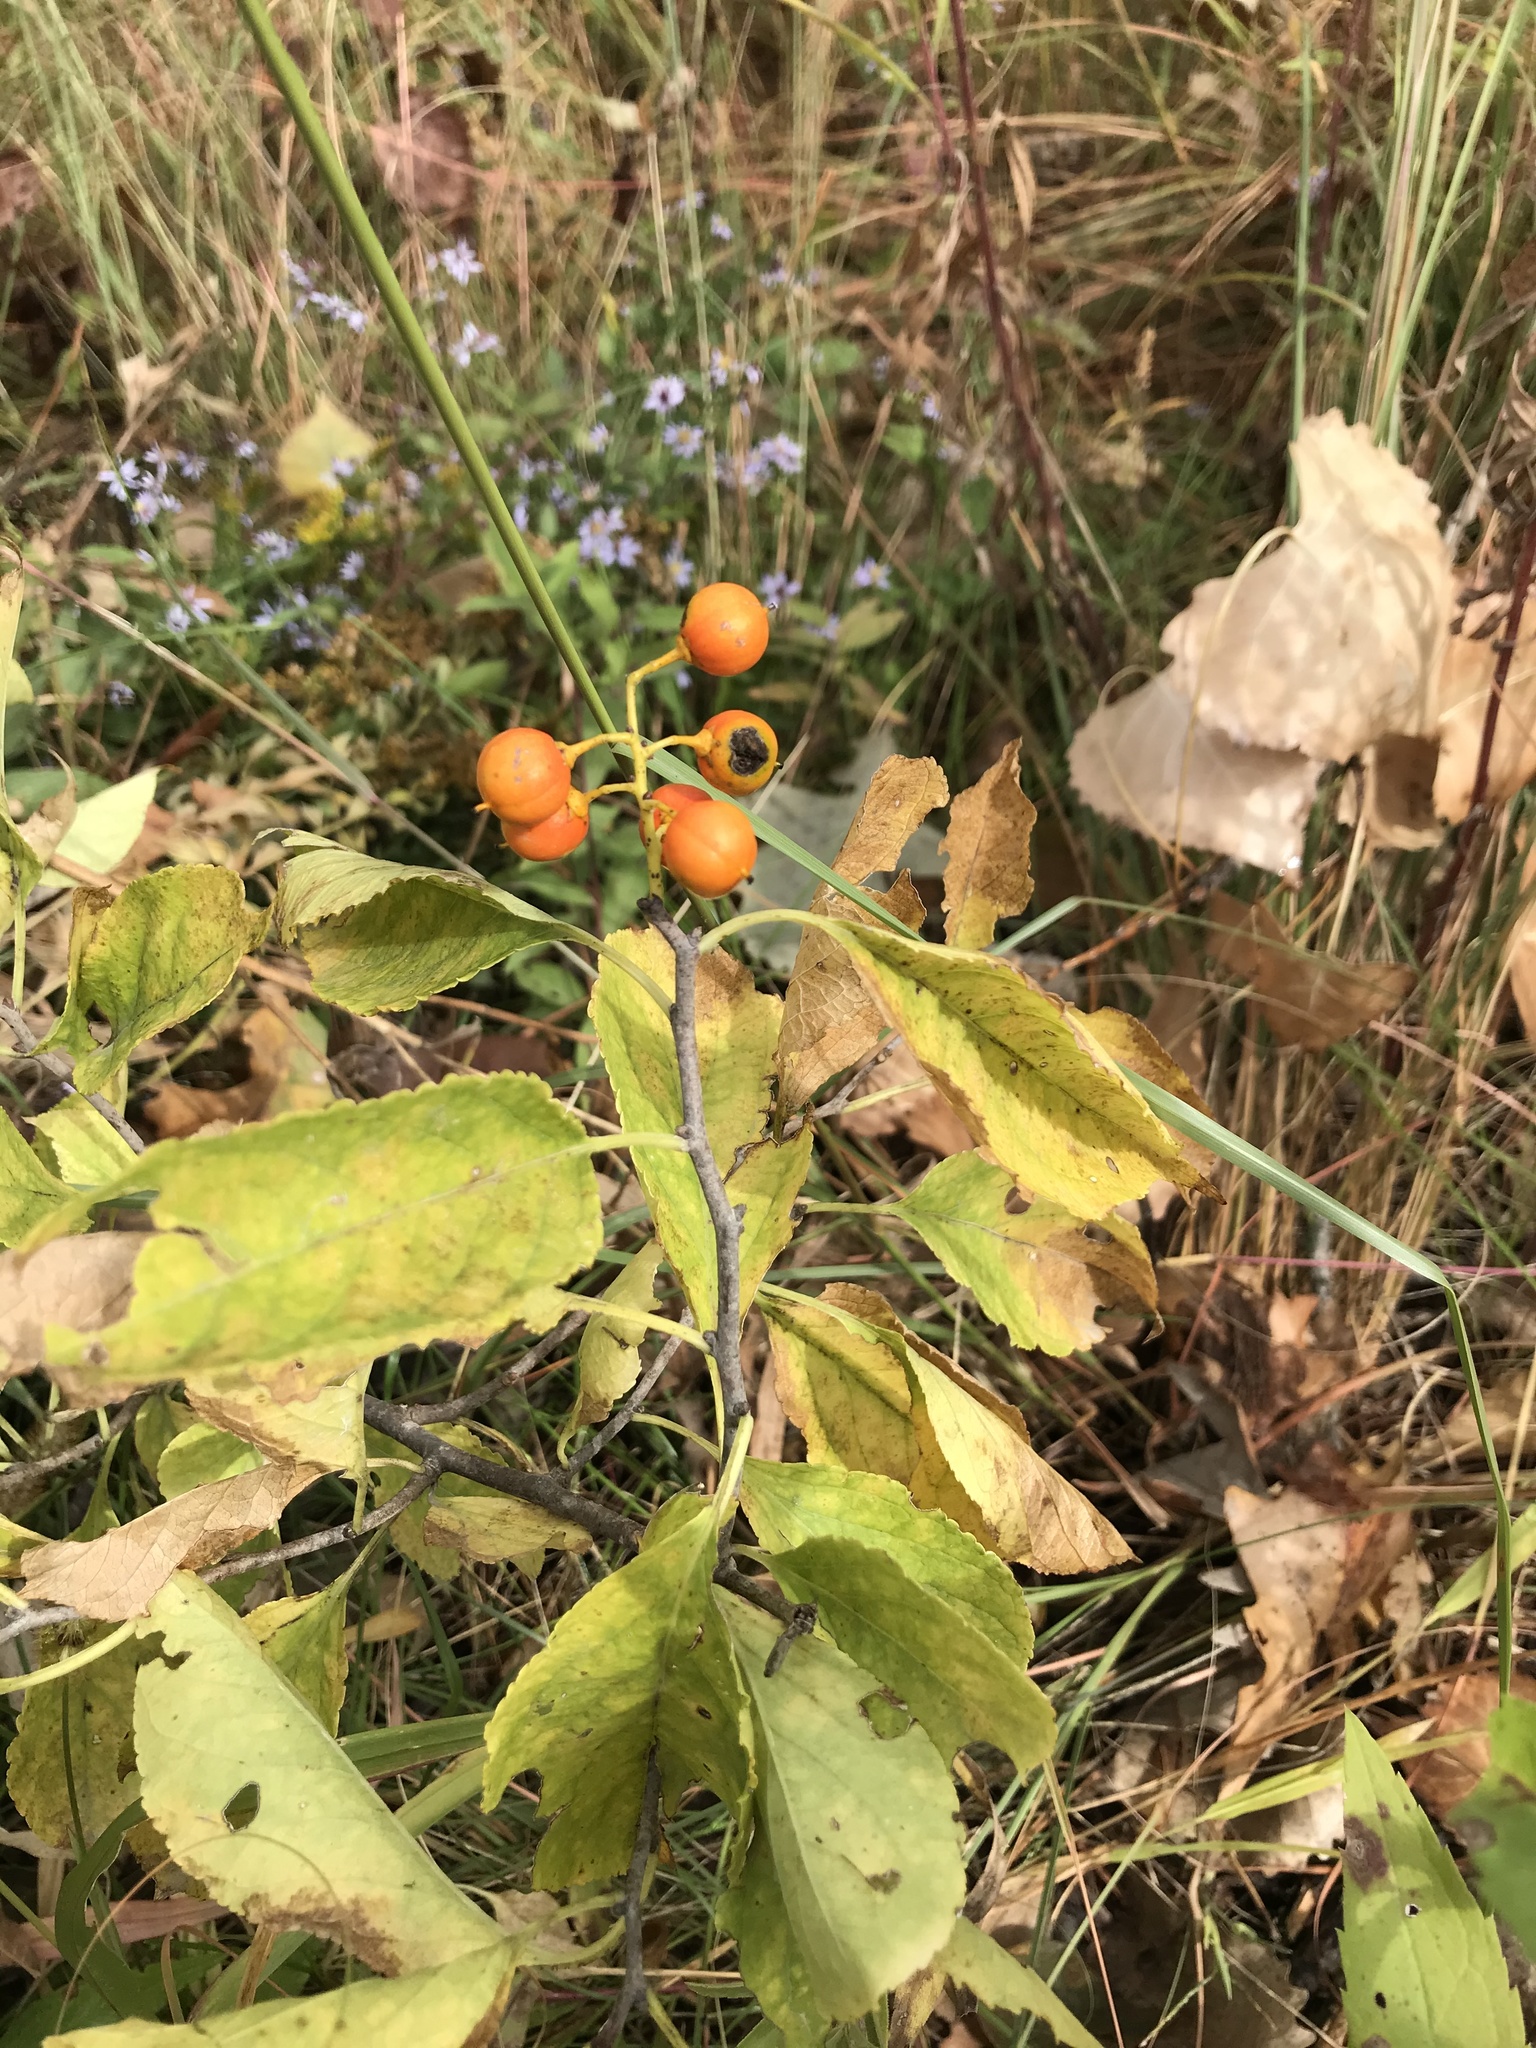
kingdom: Plantae
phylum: Tracheophyta
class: Magnoliopsida
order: Celastrales
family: Celastraceae
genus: Celastrus
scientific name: Celastrus scandens
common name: American bittersweet
